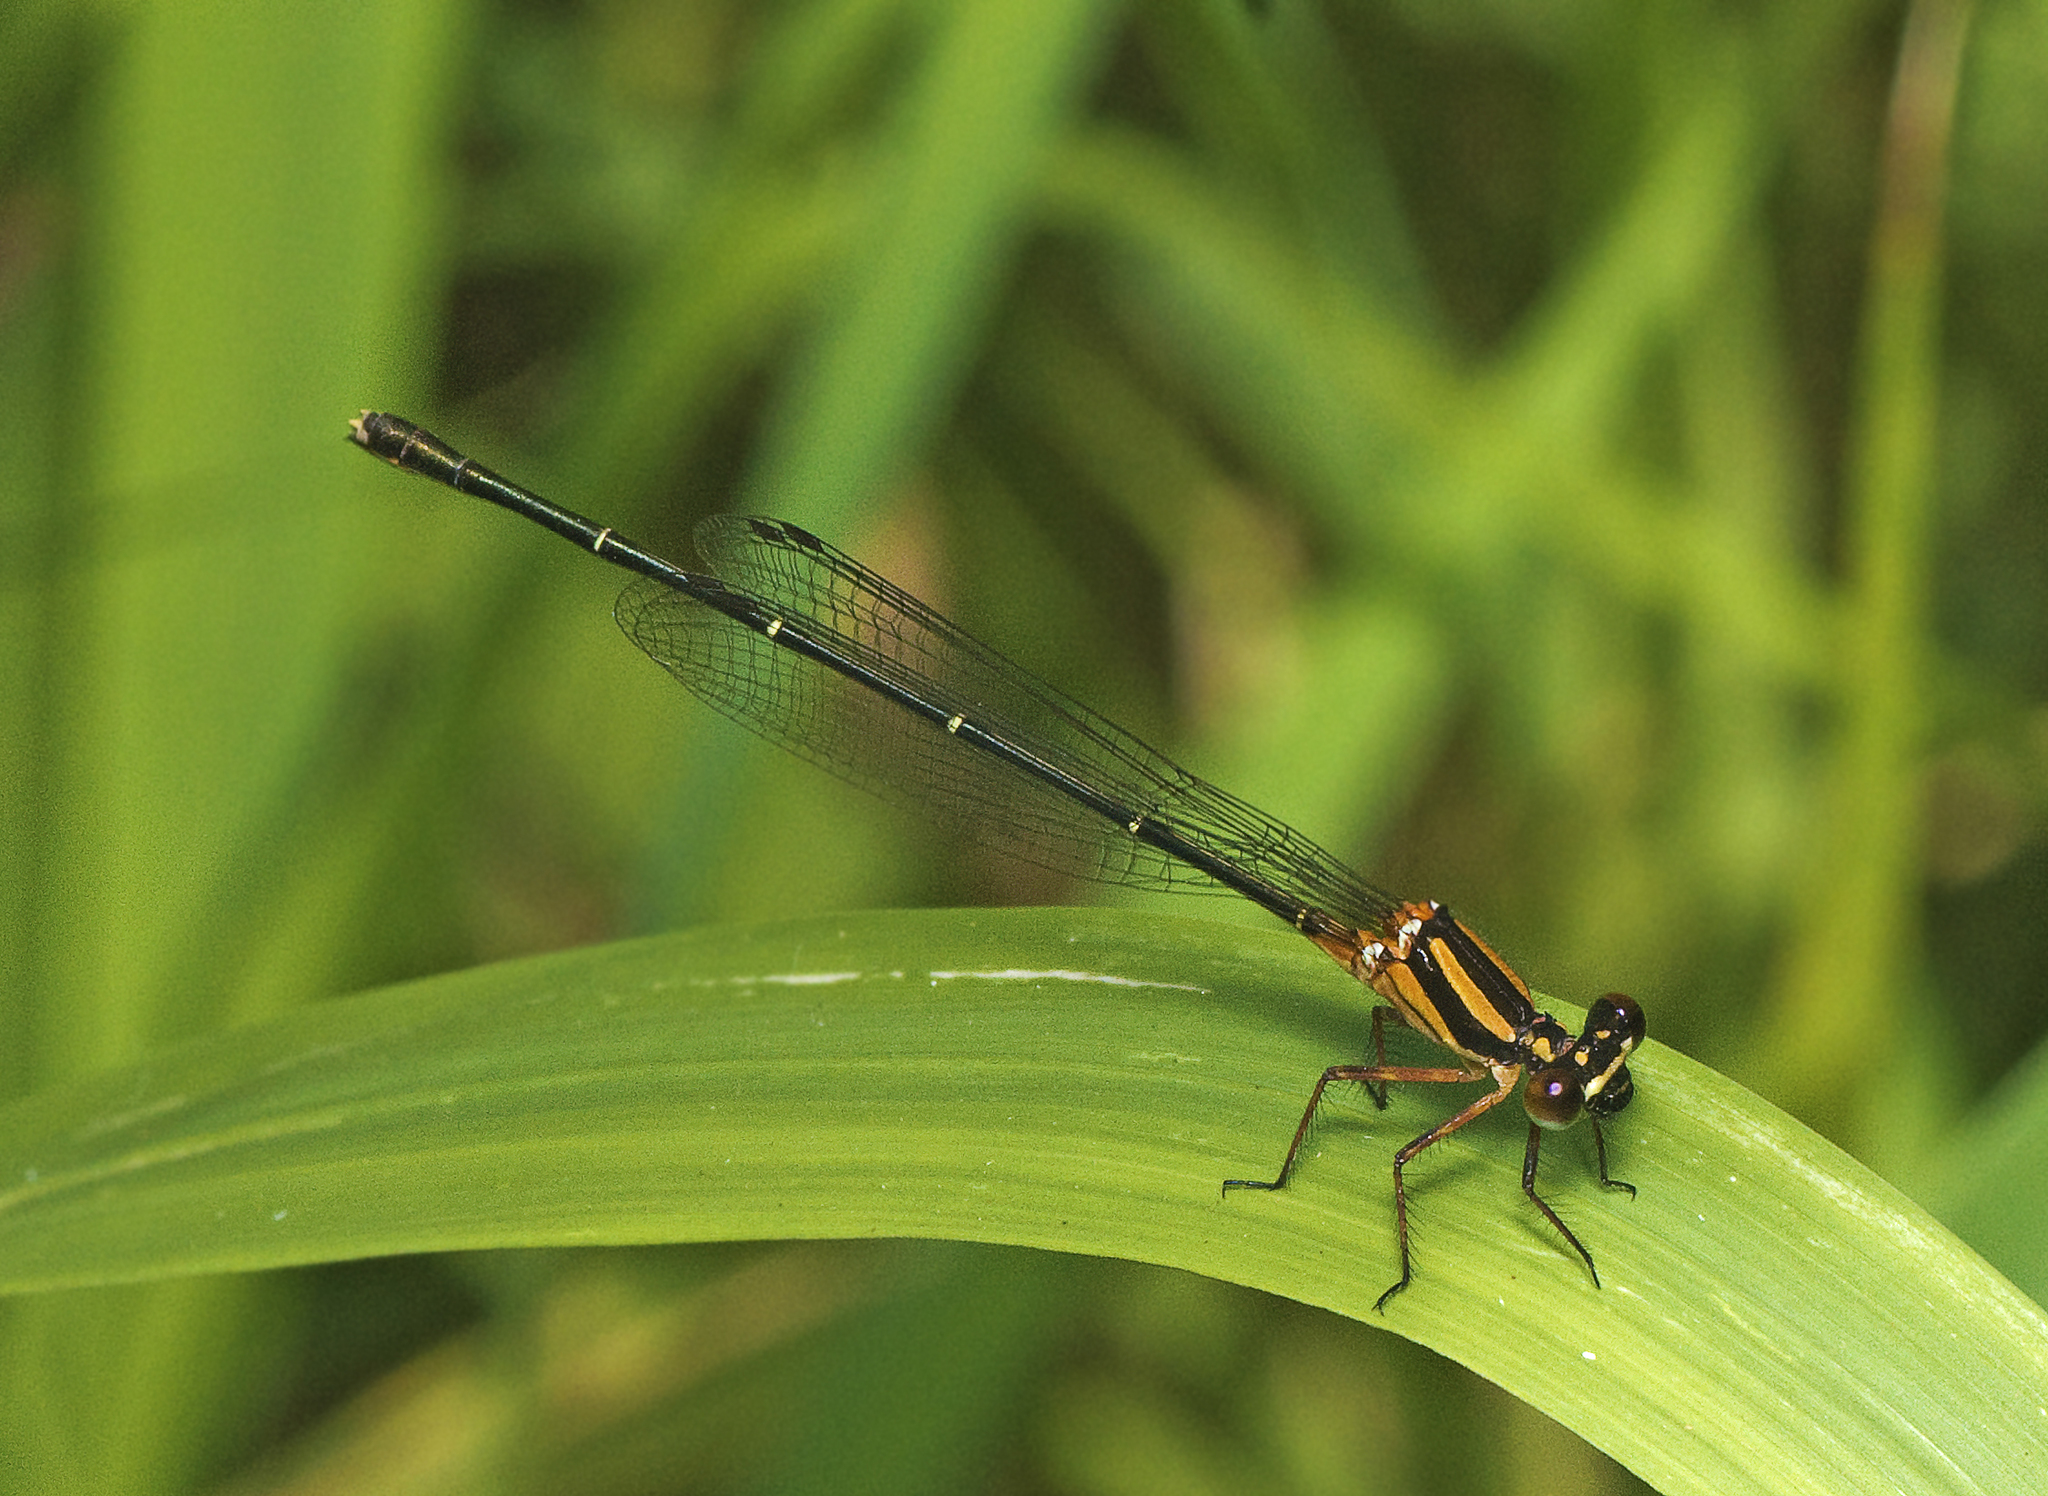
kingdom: Animalia
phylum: Arthropoda
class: Insecta
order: Odonata
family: Platycnemididae
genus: Nososticta
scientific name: Nososticta solida
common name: Orange threadtail
